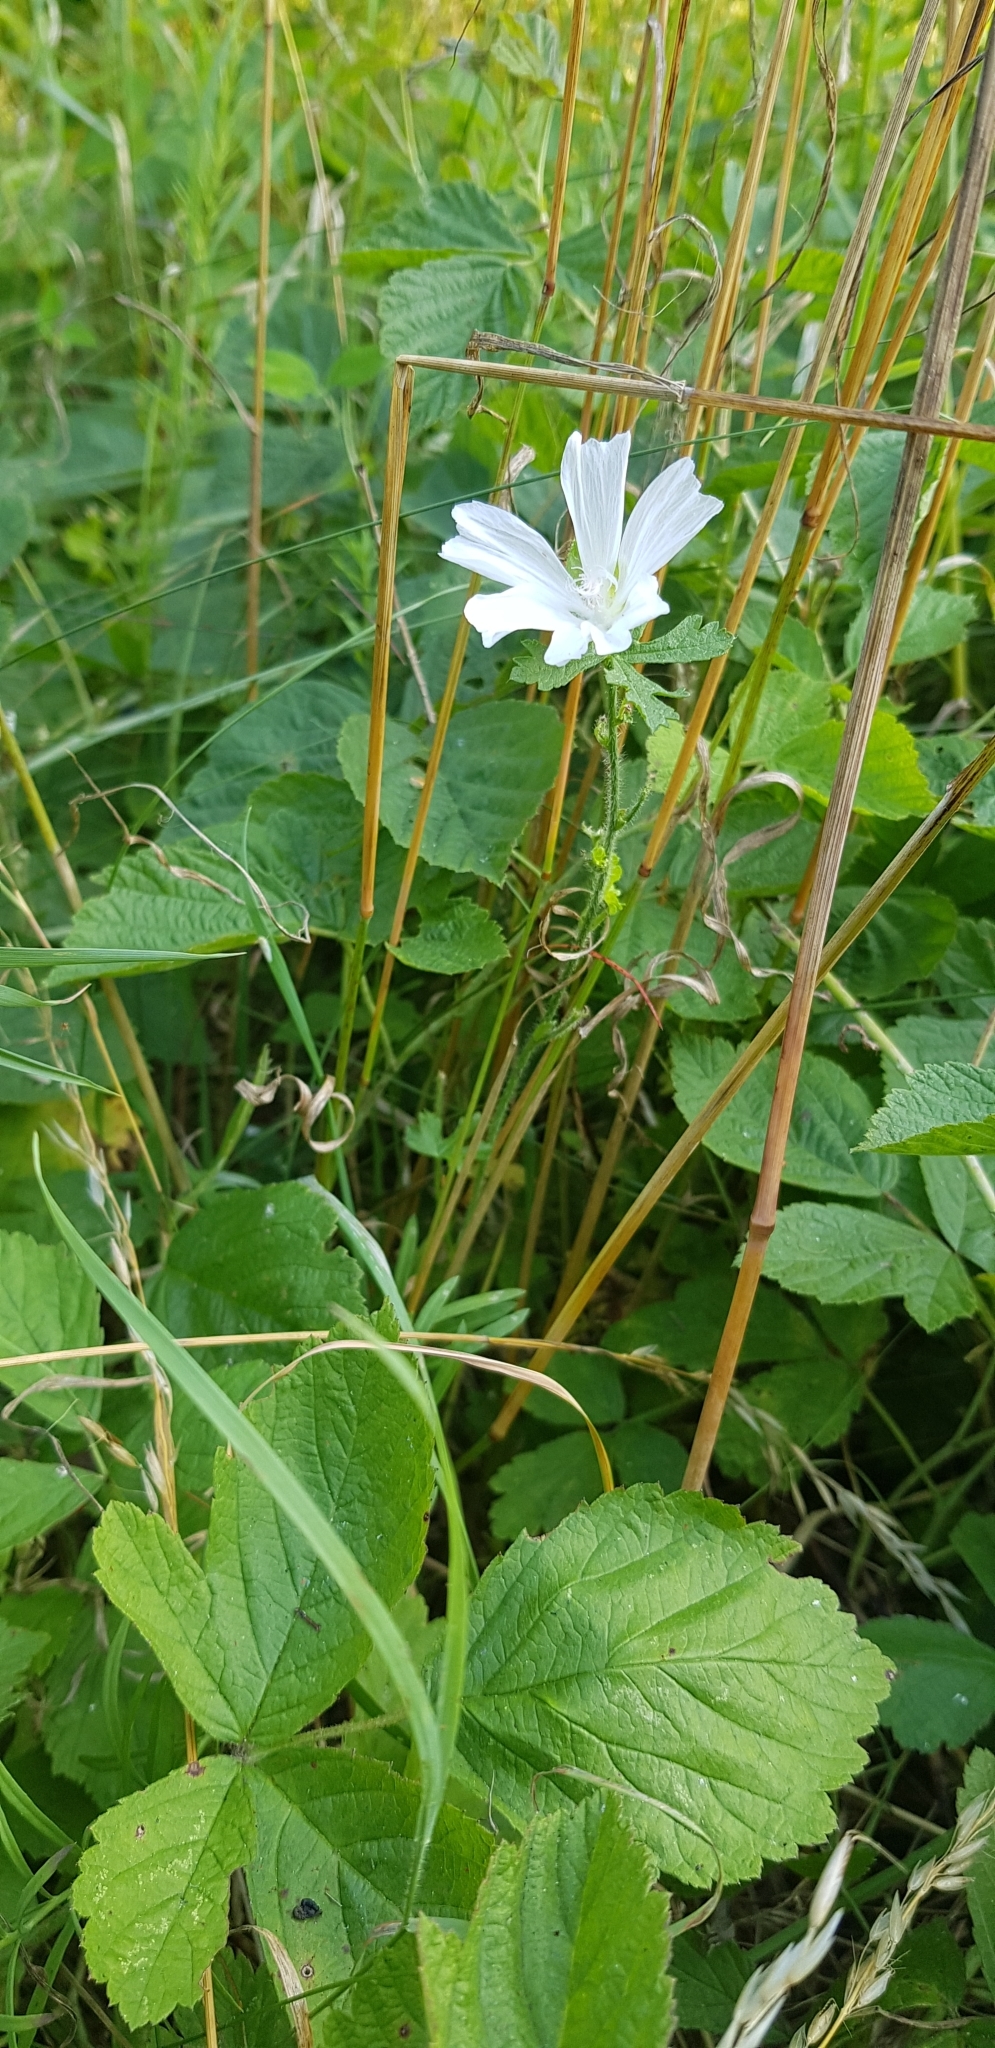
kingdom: Plantae
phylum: Tracheophyta
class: Magnoliopsida
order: Malvales
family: Malvaceae
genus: Malva
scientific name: Malva moschata
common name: Musk mallow
